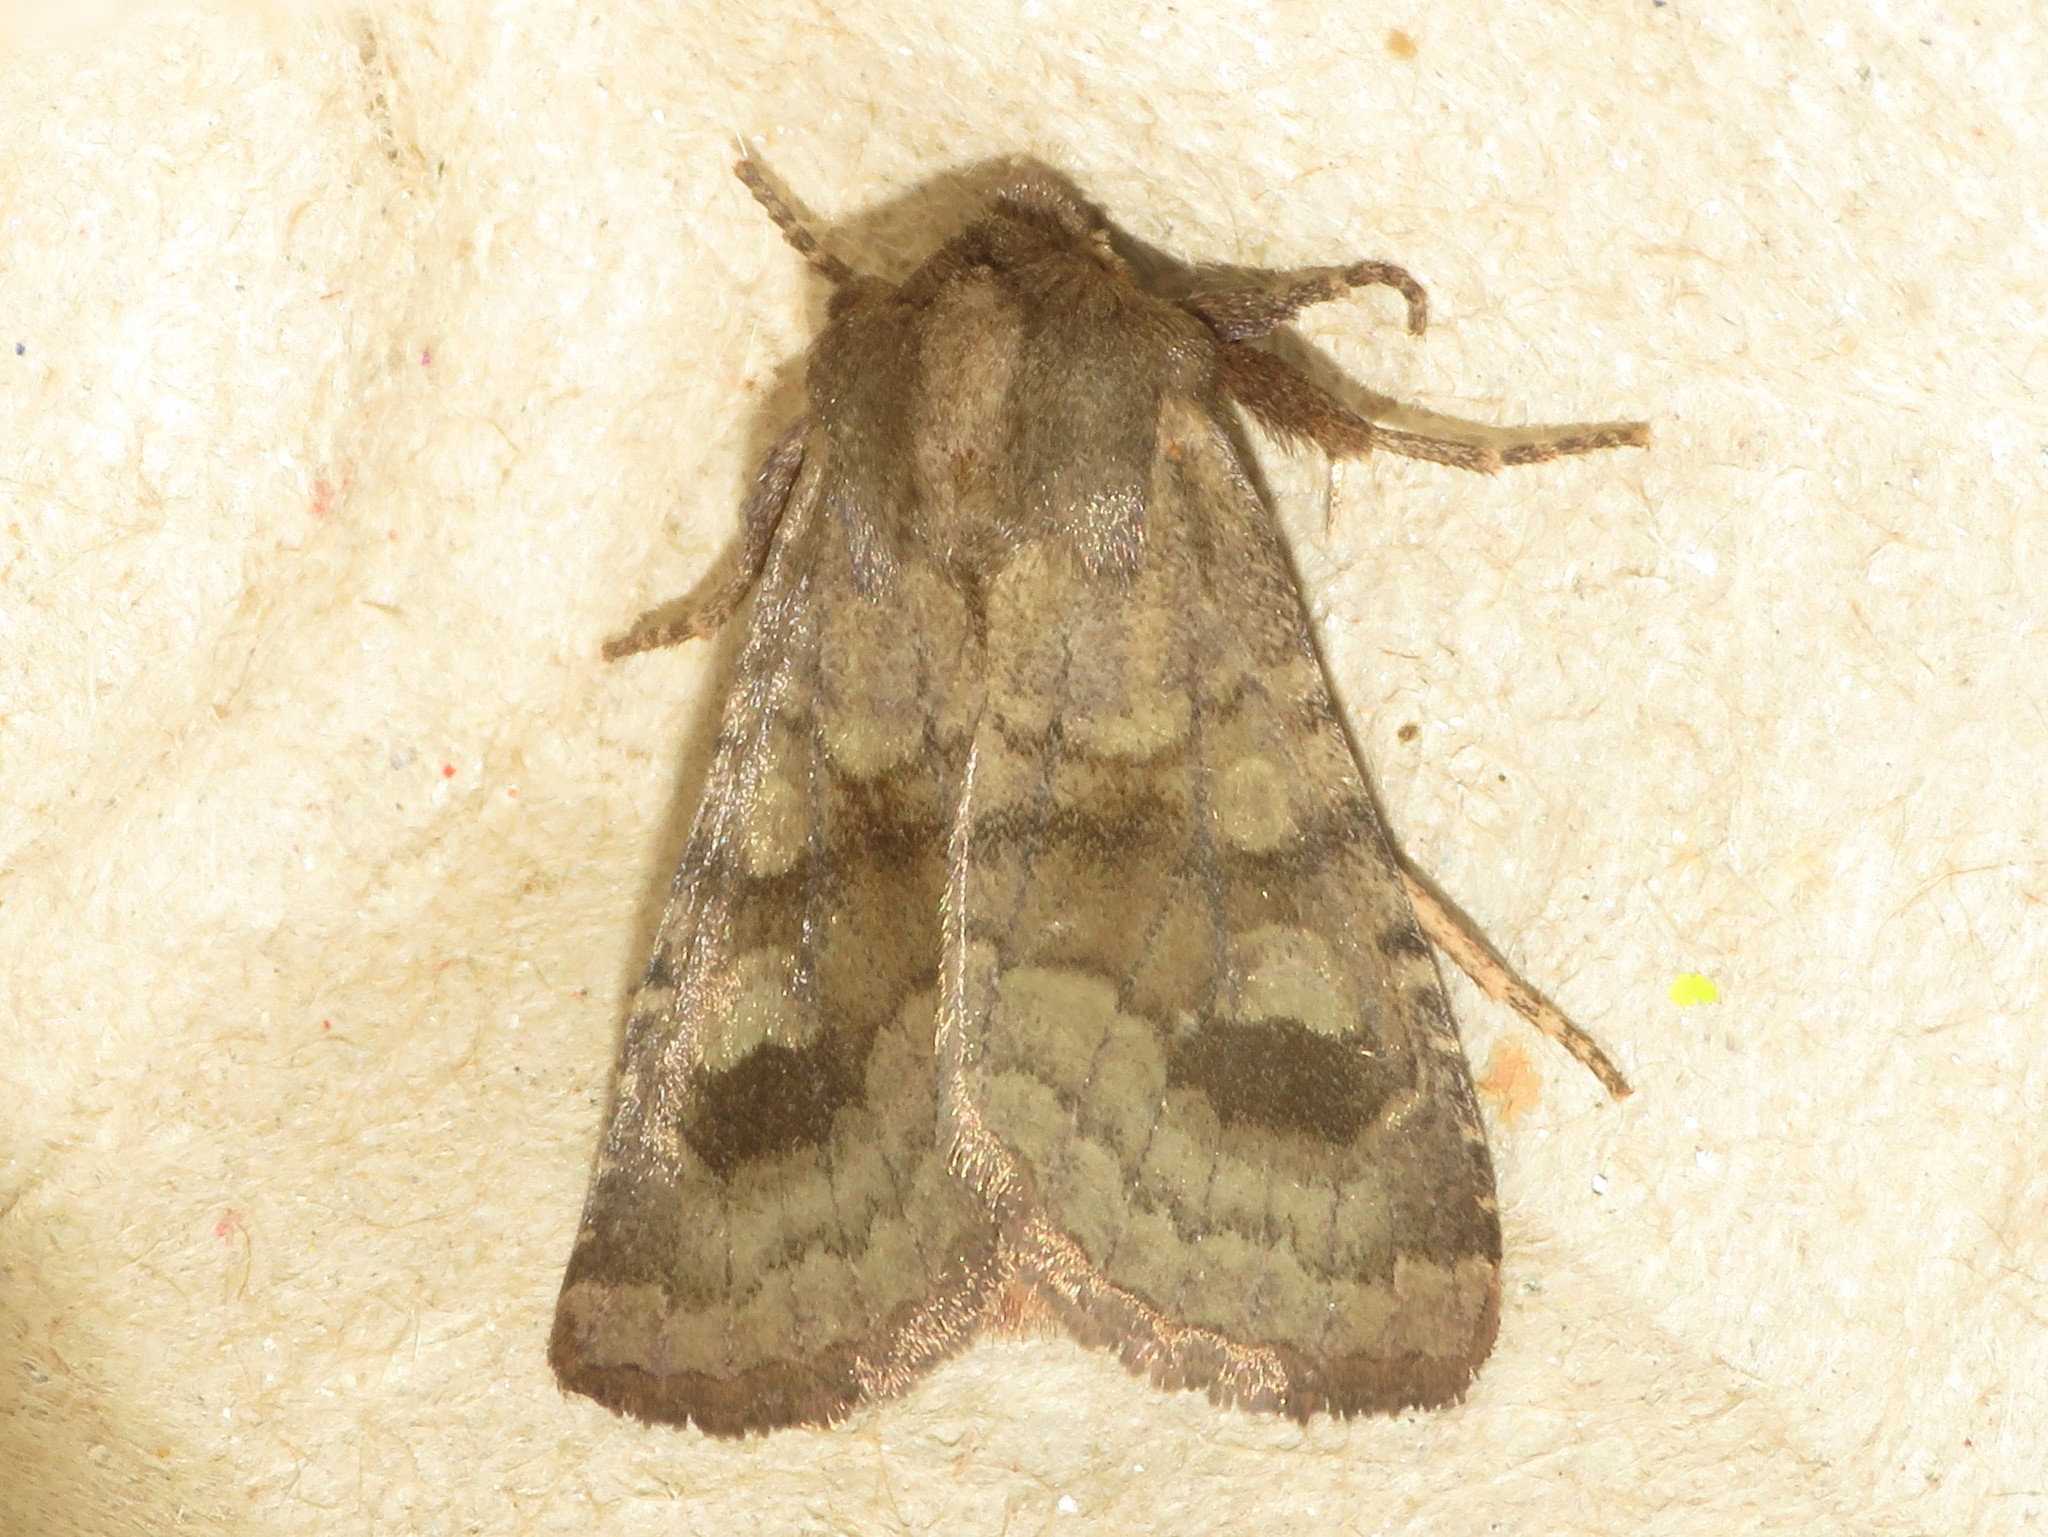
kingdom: Animalia
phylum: Arthropoda
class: Insecta
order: Lepidoptera
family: Noctuidae
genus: Nephelodes
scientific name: Nephelodes minians
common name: Bronzed cutworm
